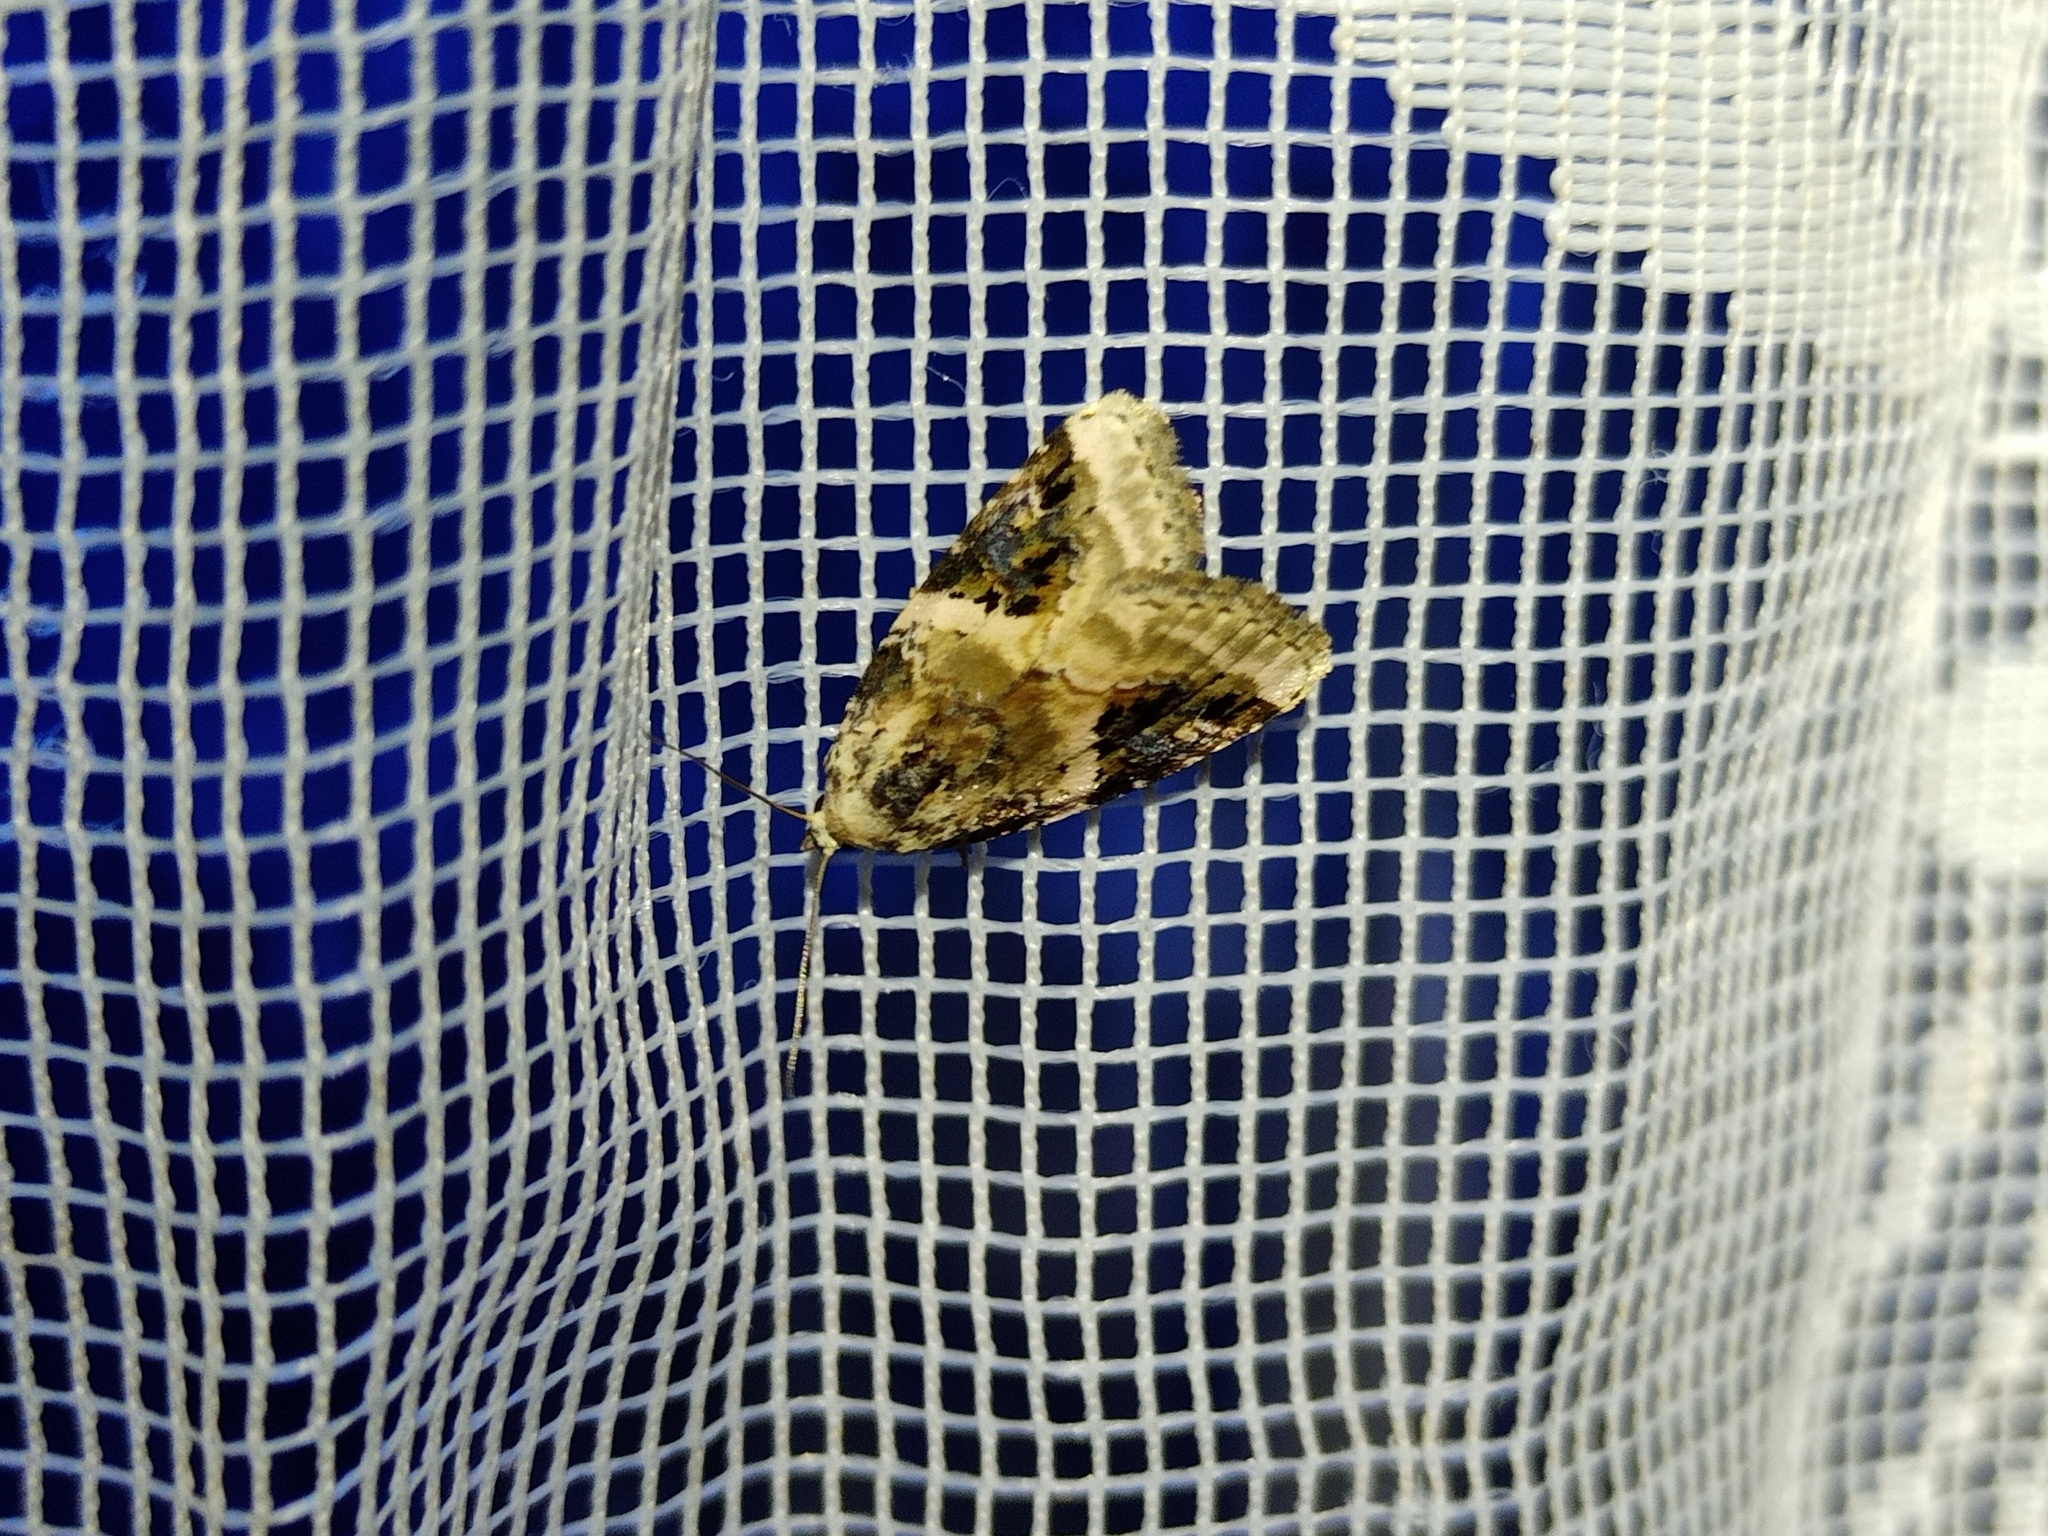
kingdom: Animalia
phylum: Arthropoda
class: Insecta
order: Lepidoptera
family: Noctuidae
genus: Pseudeustrotia
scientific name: Pseudeustrotia candidula
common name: Shining marbled
